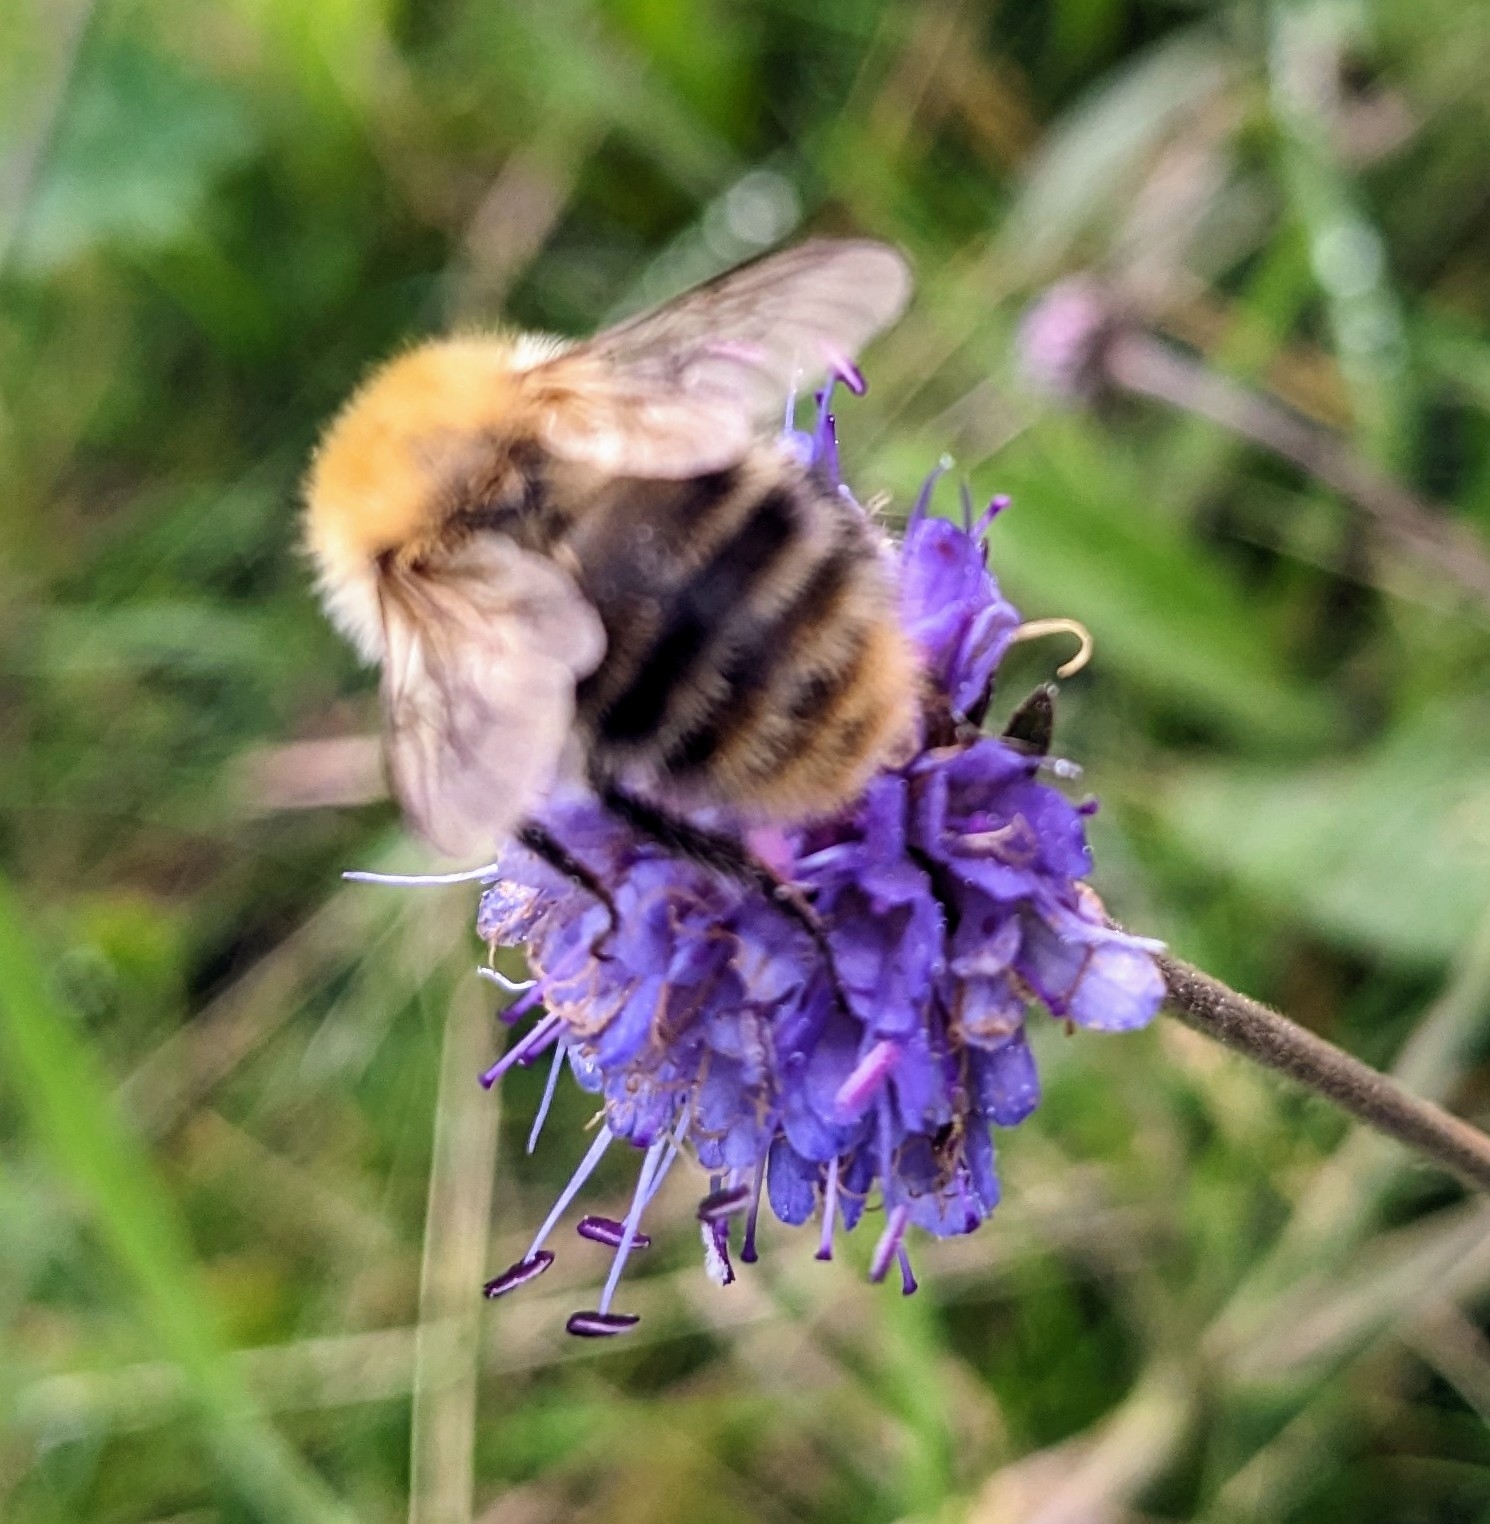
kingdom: Animalia
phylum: Arthropoda
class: Insecta
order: Hymenoptera
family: Apidae
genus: Bombus
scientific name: Bombus pascuorum
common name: Common carder bee
